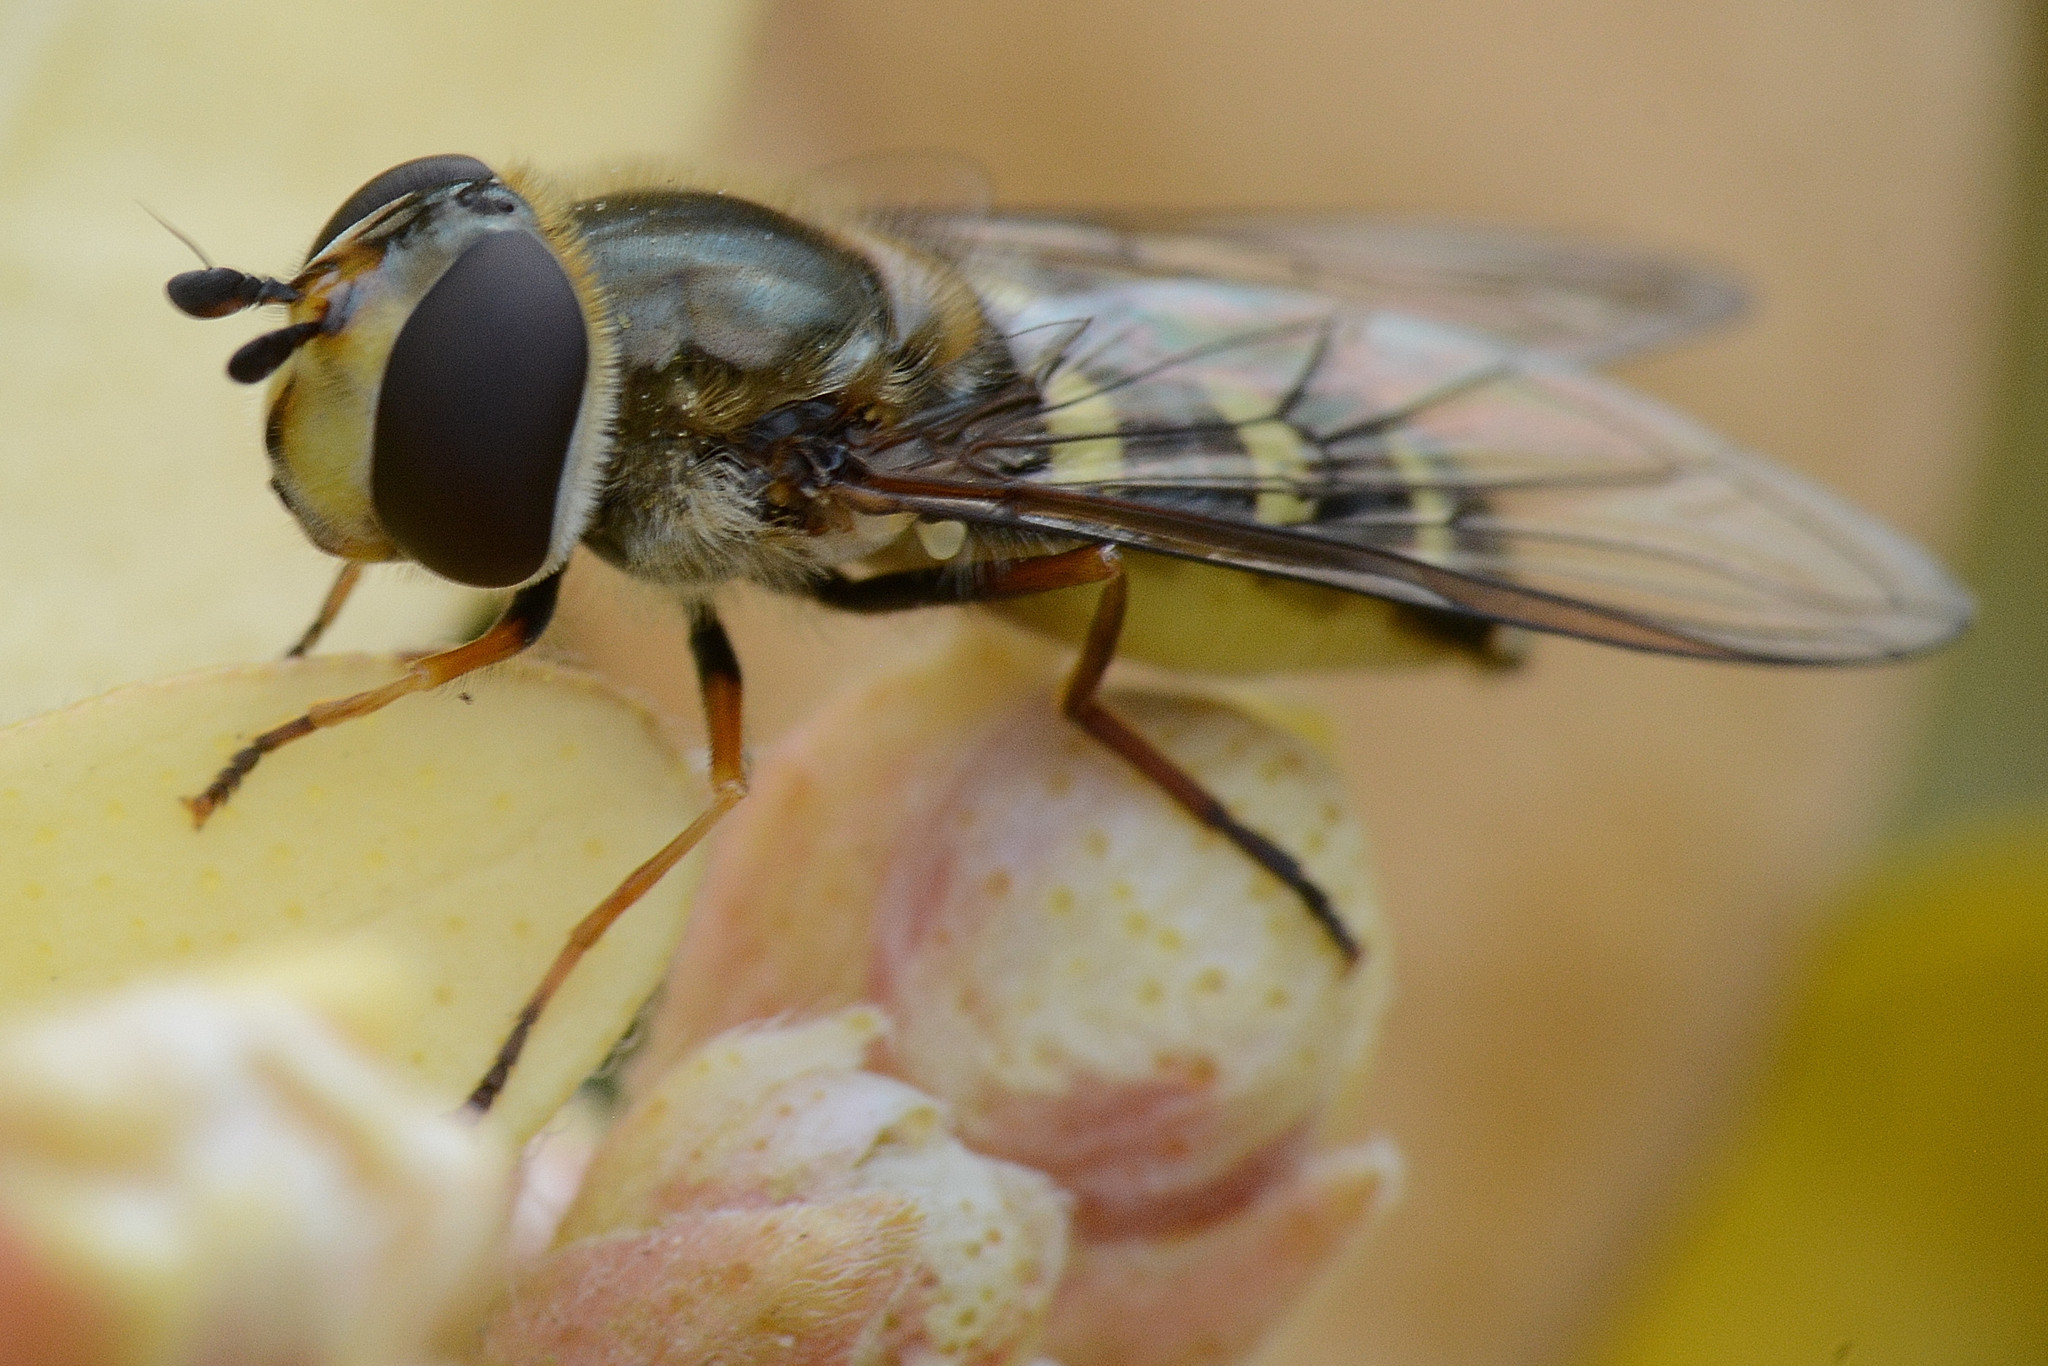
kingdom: Animalia
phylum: Arthropoda
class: Insecta
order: Diptera
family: Syrphidae
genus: Eupeodes
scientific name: Eupeodes luniger
